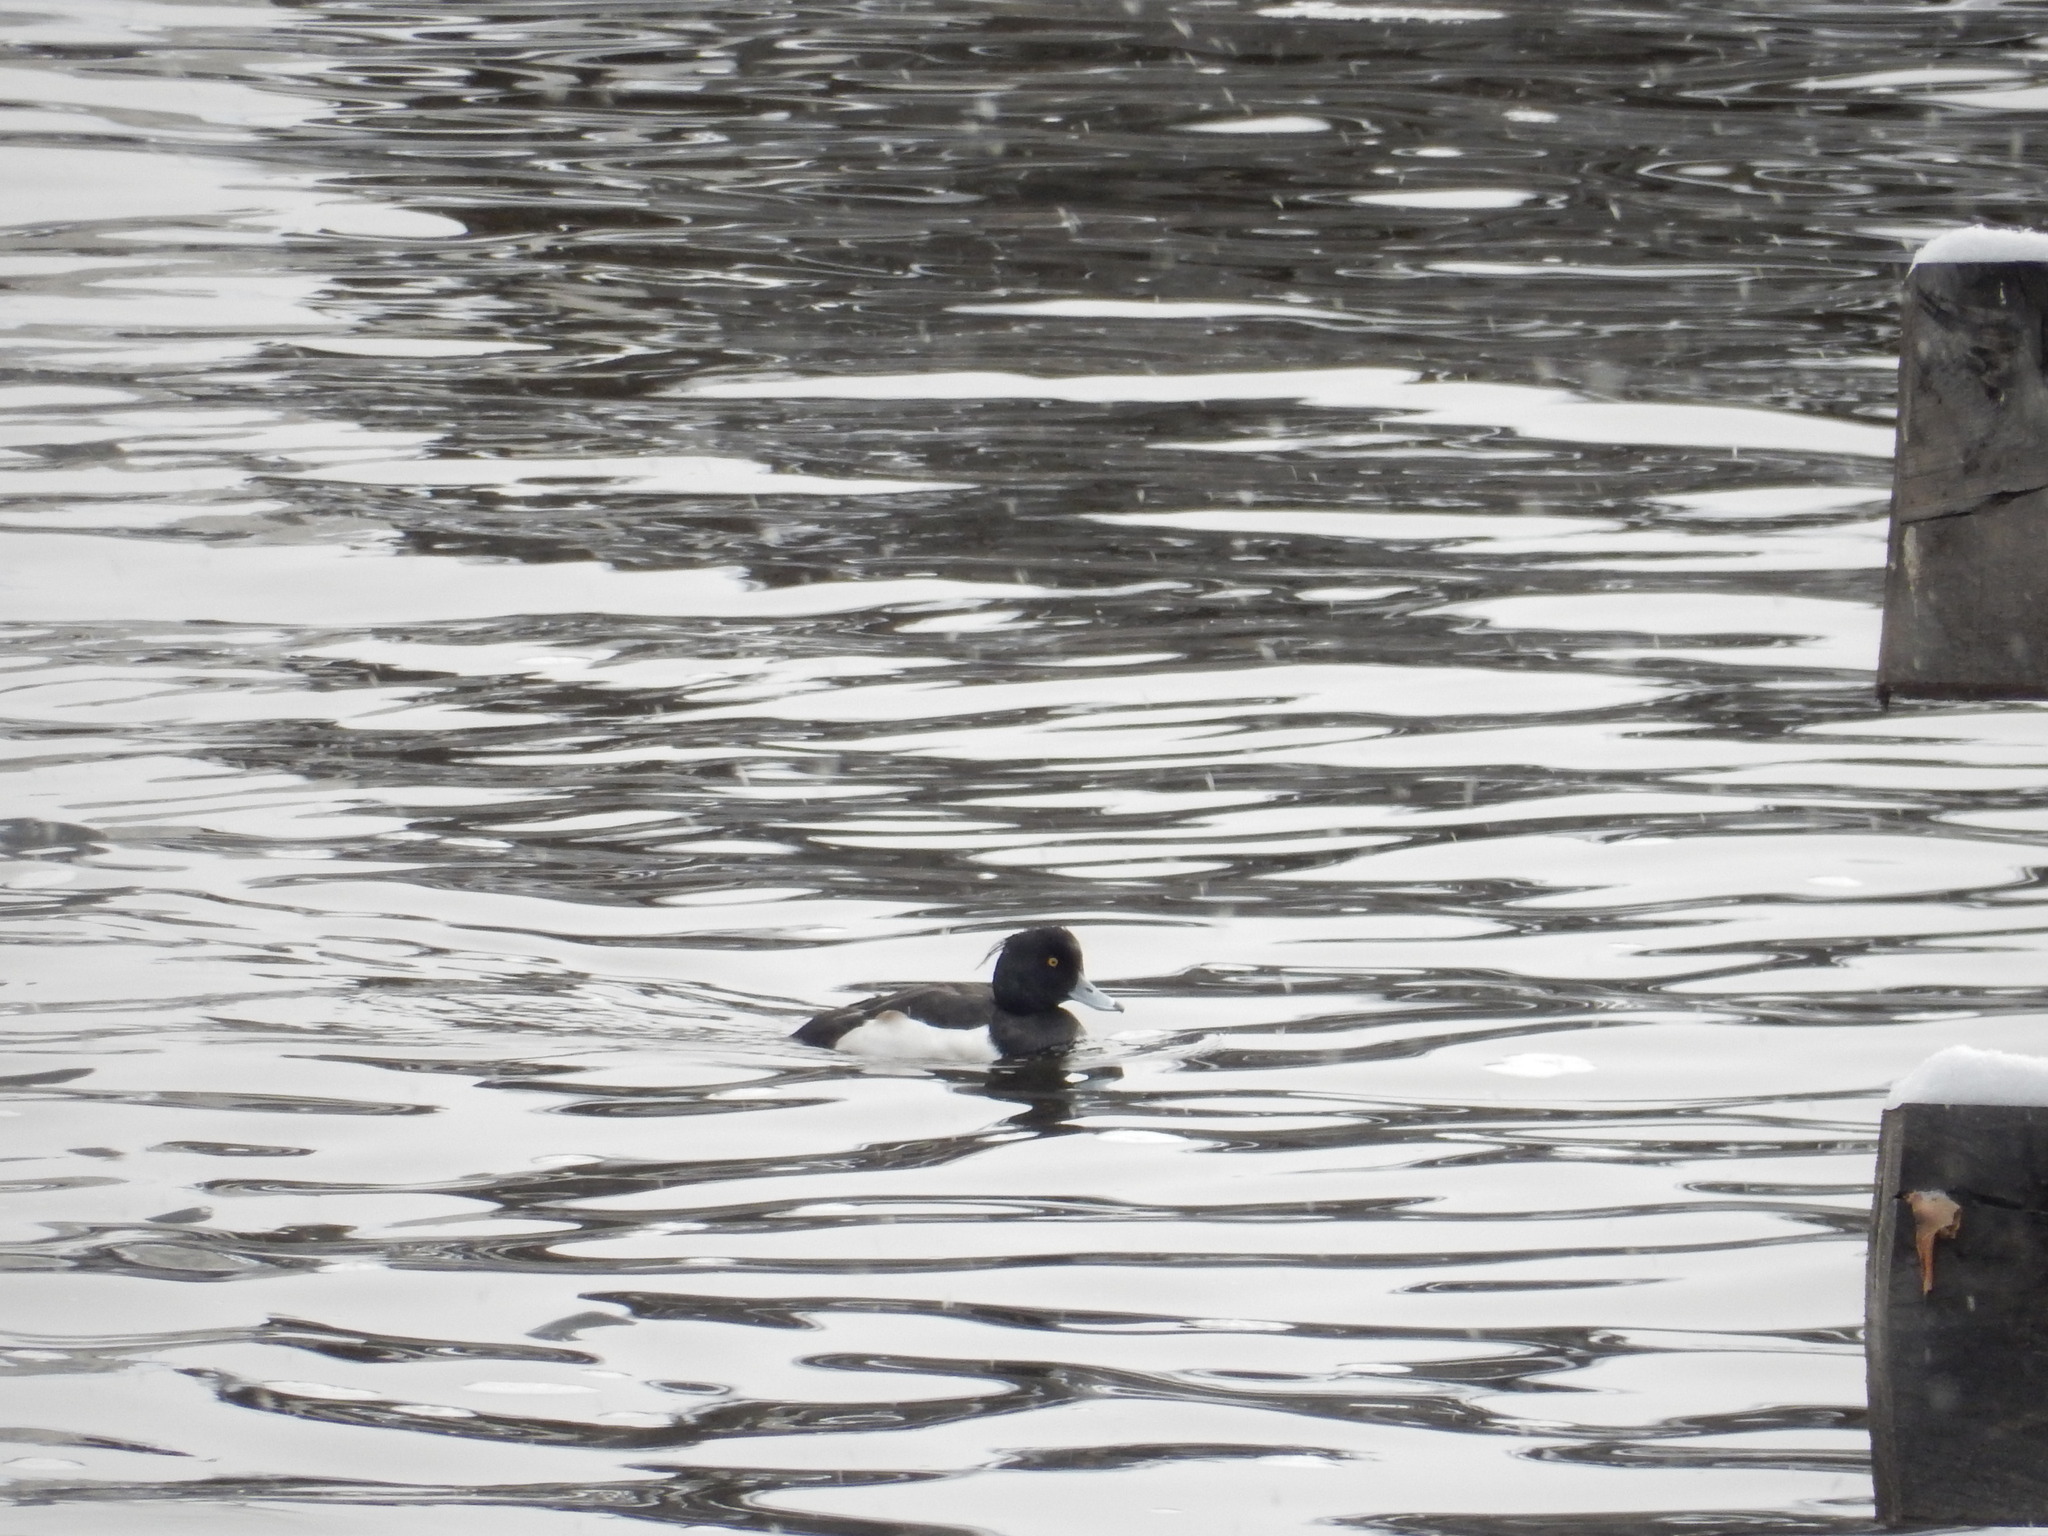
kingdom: Animalia
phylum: Chordata
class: Aves
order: Anseriformes
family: Anatidae
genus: Aythya
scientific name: Aythya fuligula
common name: Tufted duck
